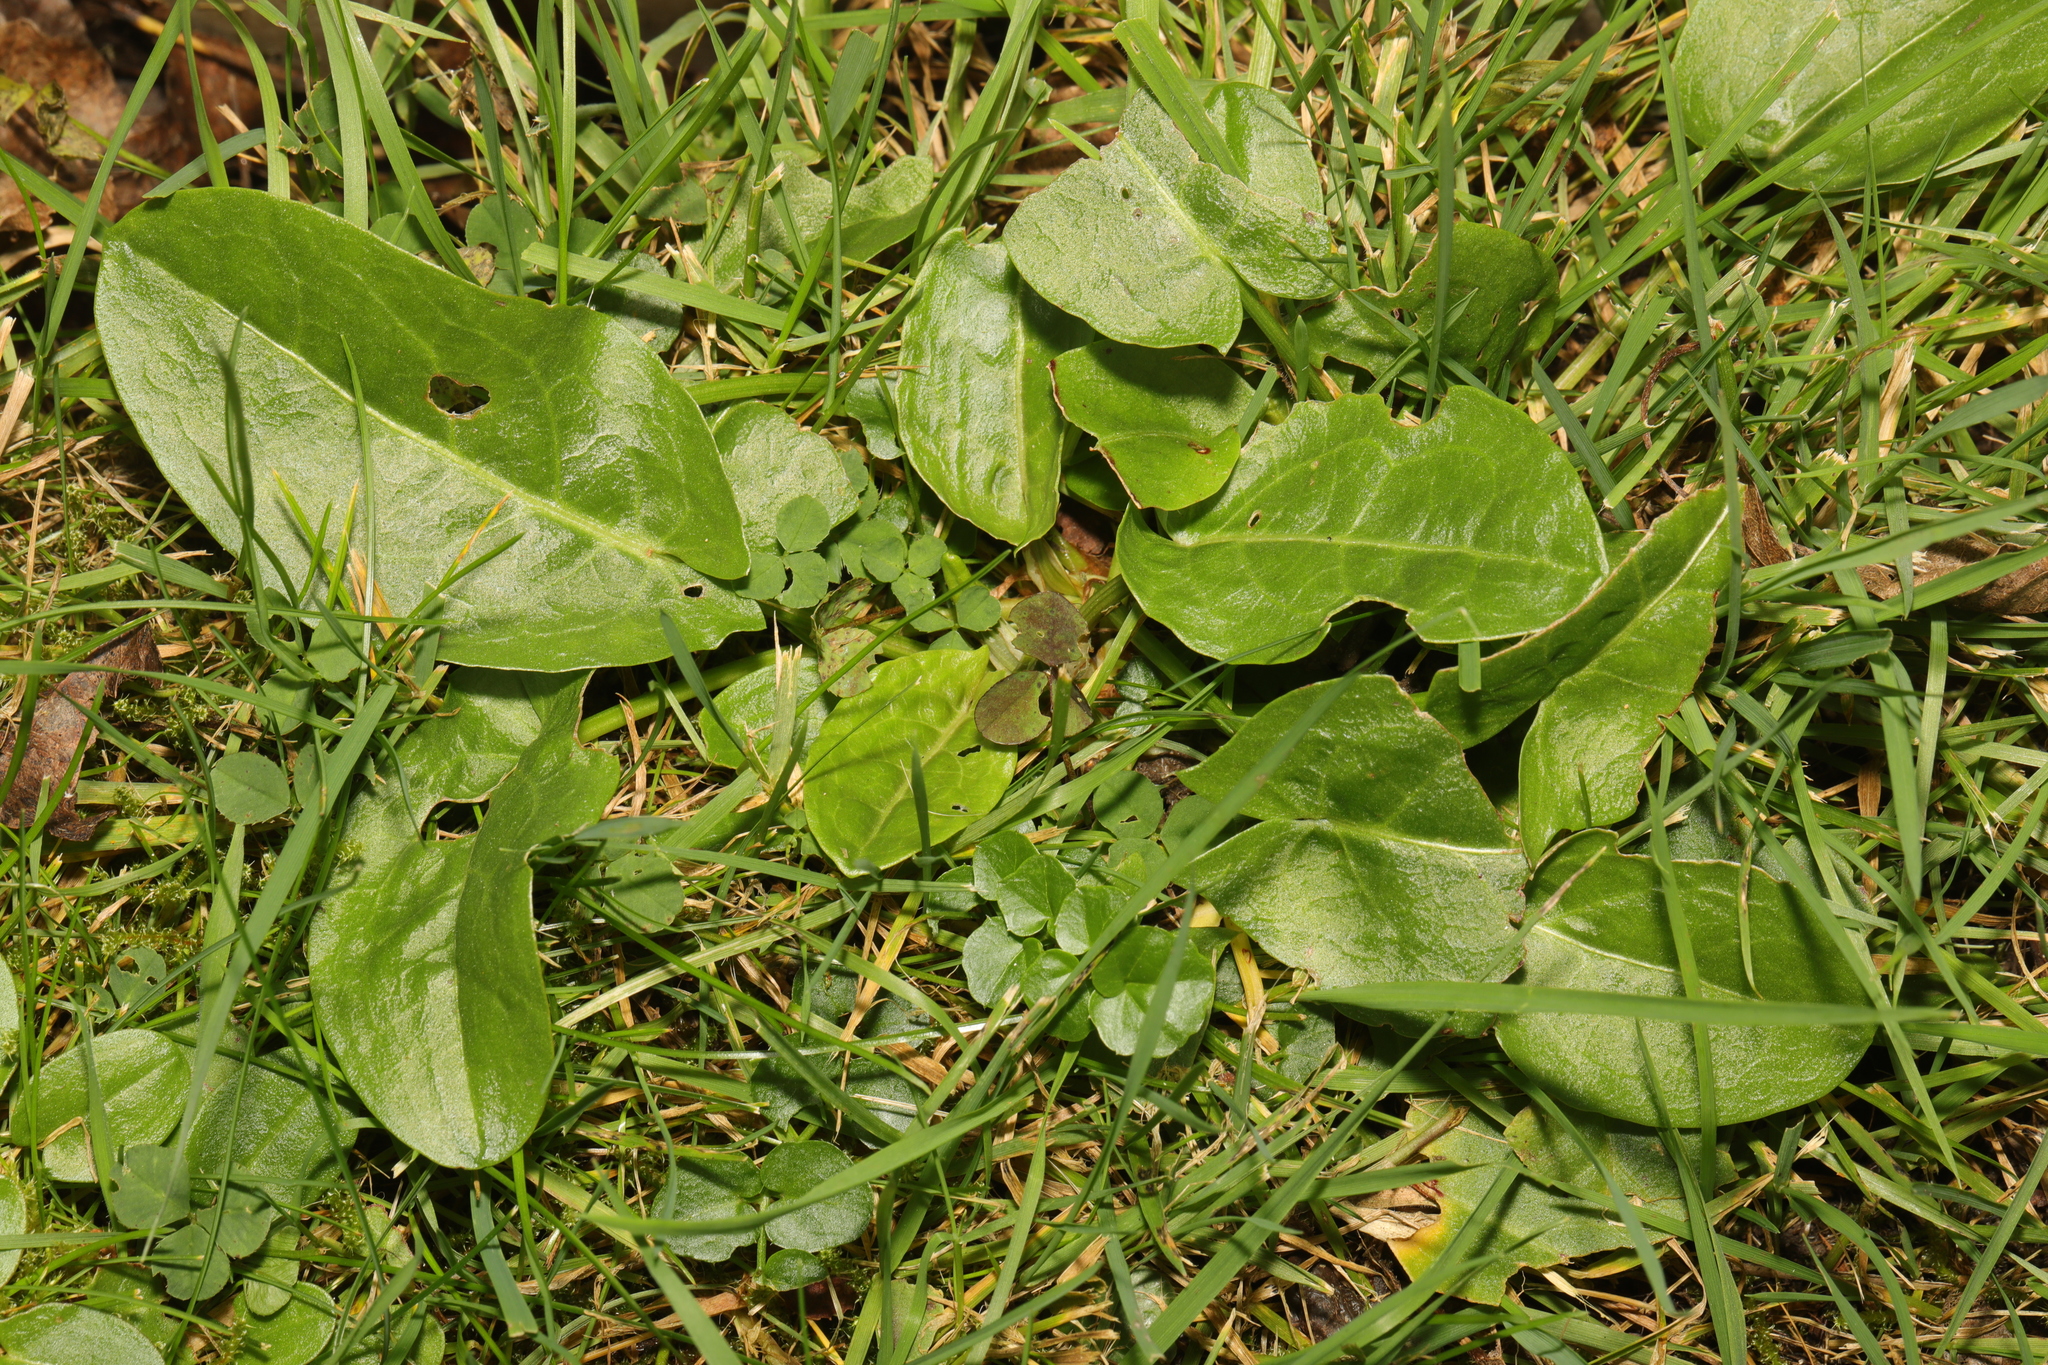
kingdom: Plantae
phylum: Tracheophyta
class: Magnoliopsida
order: Caryophyllales
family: Polygonaceae
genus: Rumex
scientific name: Rumex acetosa
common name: Garden sorrel
